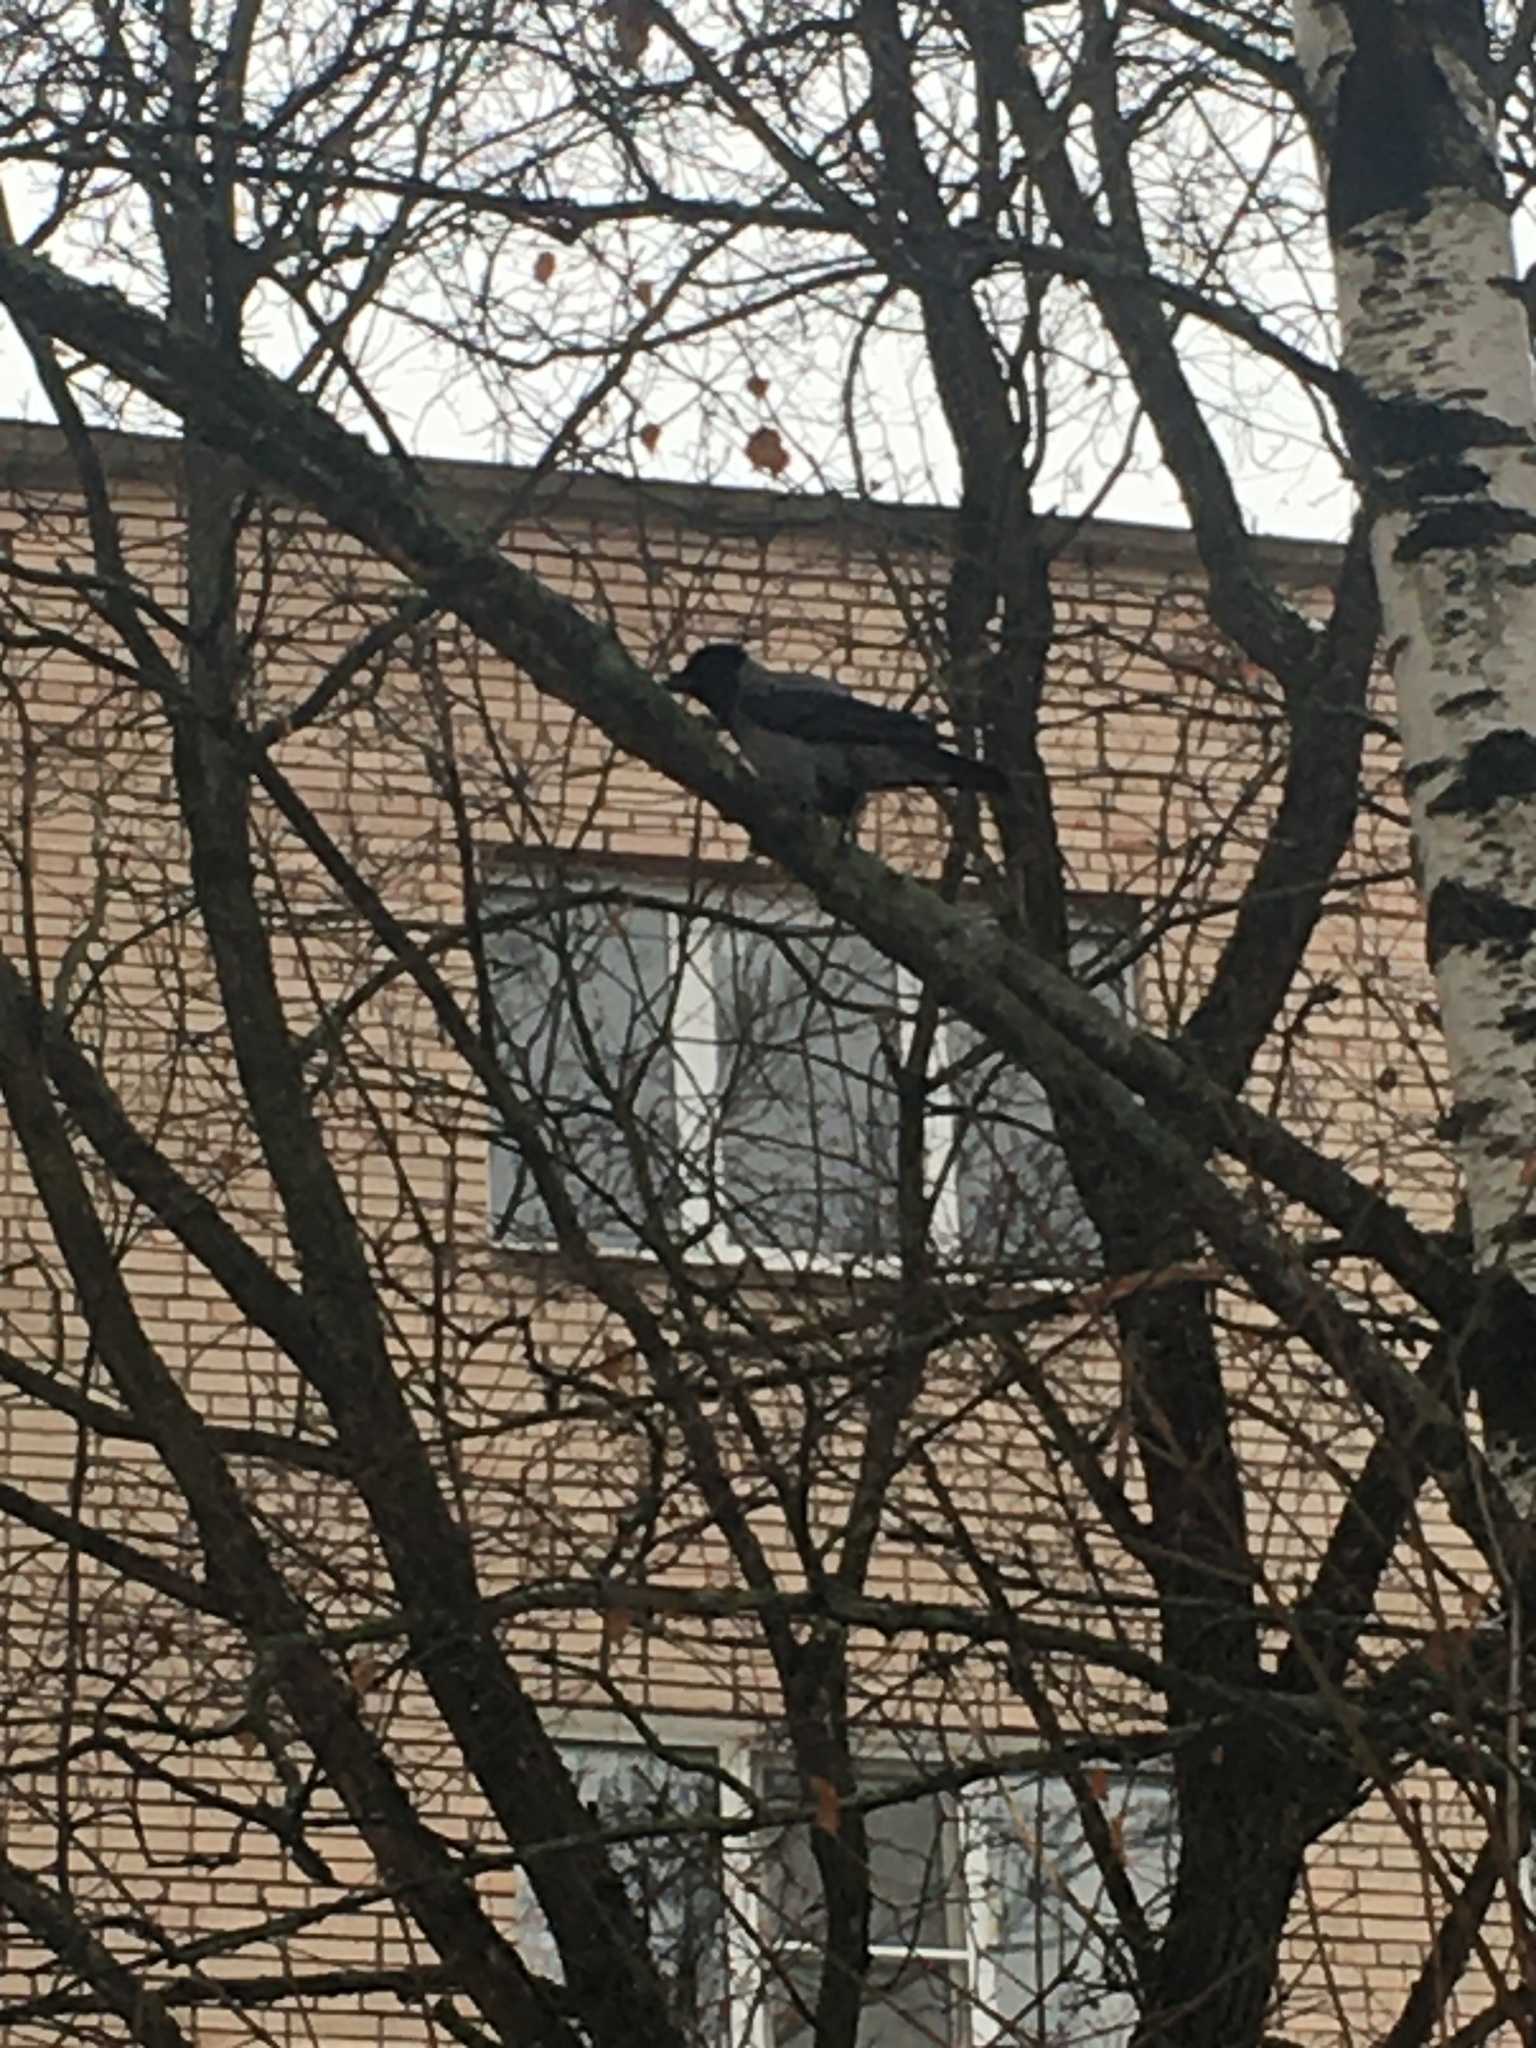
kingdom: Animalia
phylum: Chordata
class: Aves
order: Passeriformes
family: Corvidae
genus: Corvus
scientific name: Corvus cornix
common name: Hooded crow
